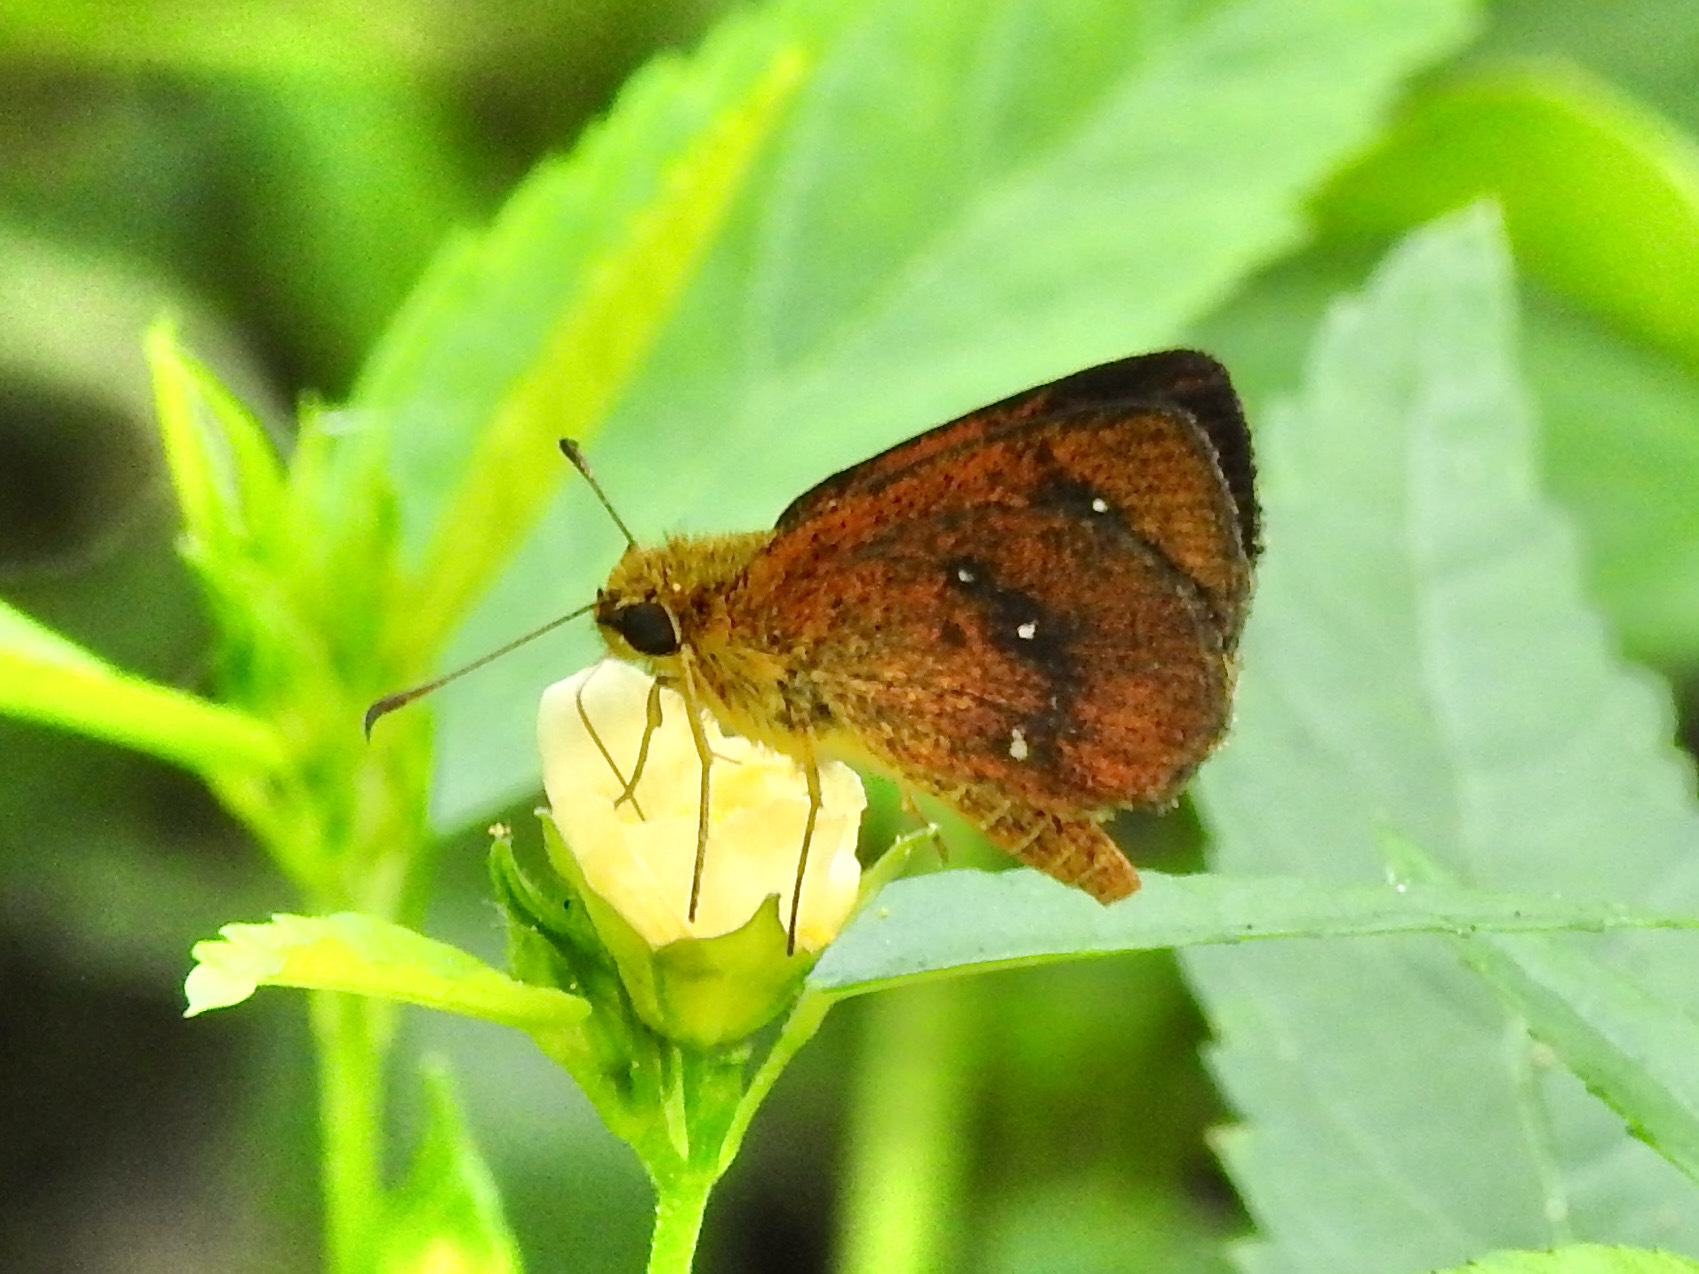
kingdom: Animalia
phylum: Arthropoda
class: Insecta
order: Lepidoptera
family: Hesperiidae
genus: Iambrix
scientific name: Iambrix salsala
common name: Chestnut bob
